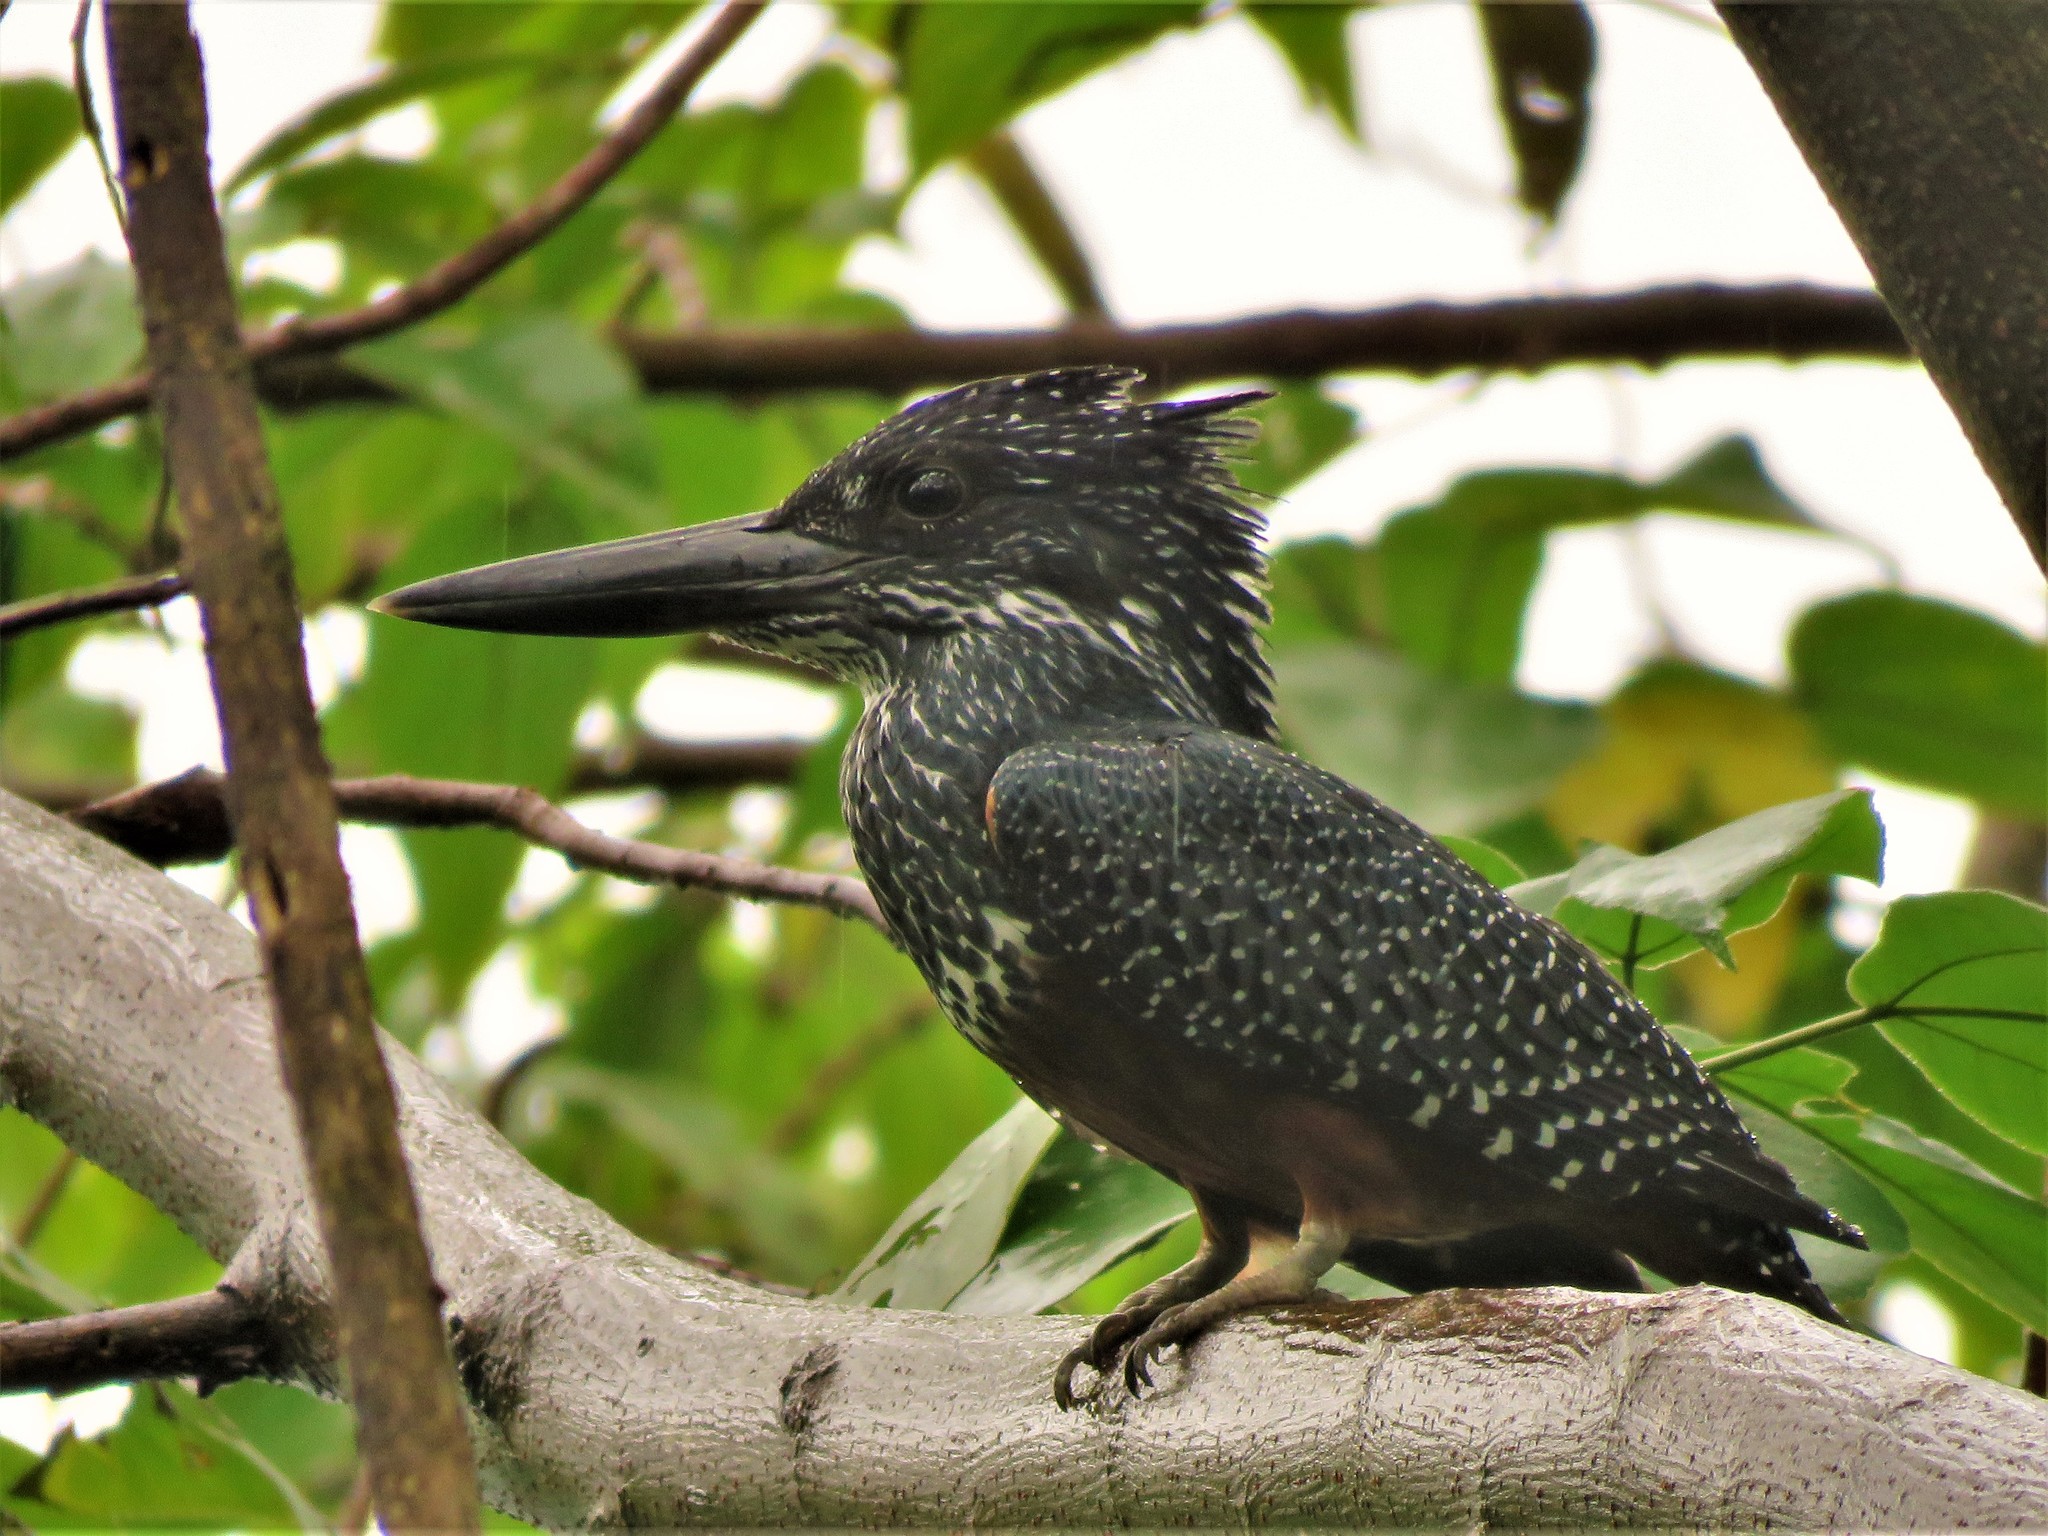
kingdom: Animalia
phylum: Chordata
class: Aves
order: Coraciiformes
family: Alcedinidae
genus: Megaceryle
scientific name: Megaceryle maxima
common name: Giant kingfisher
